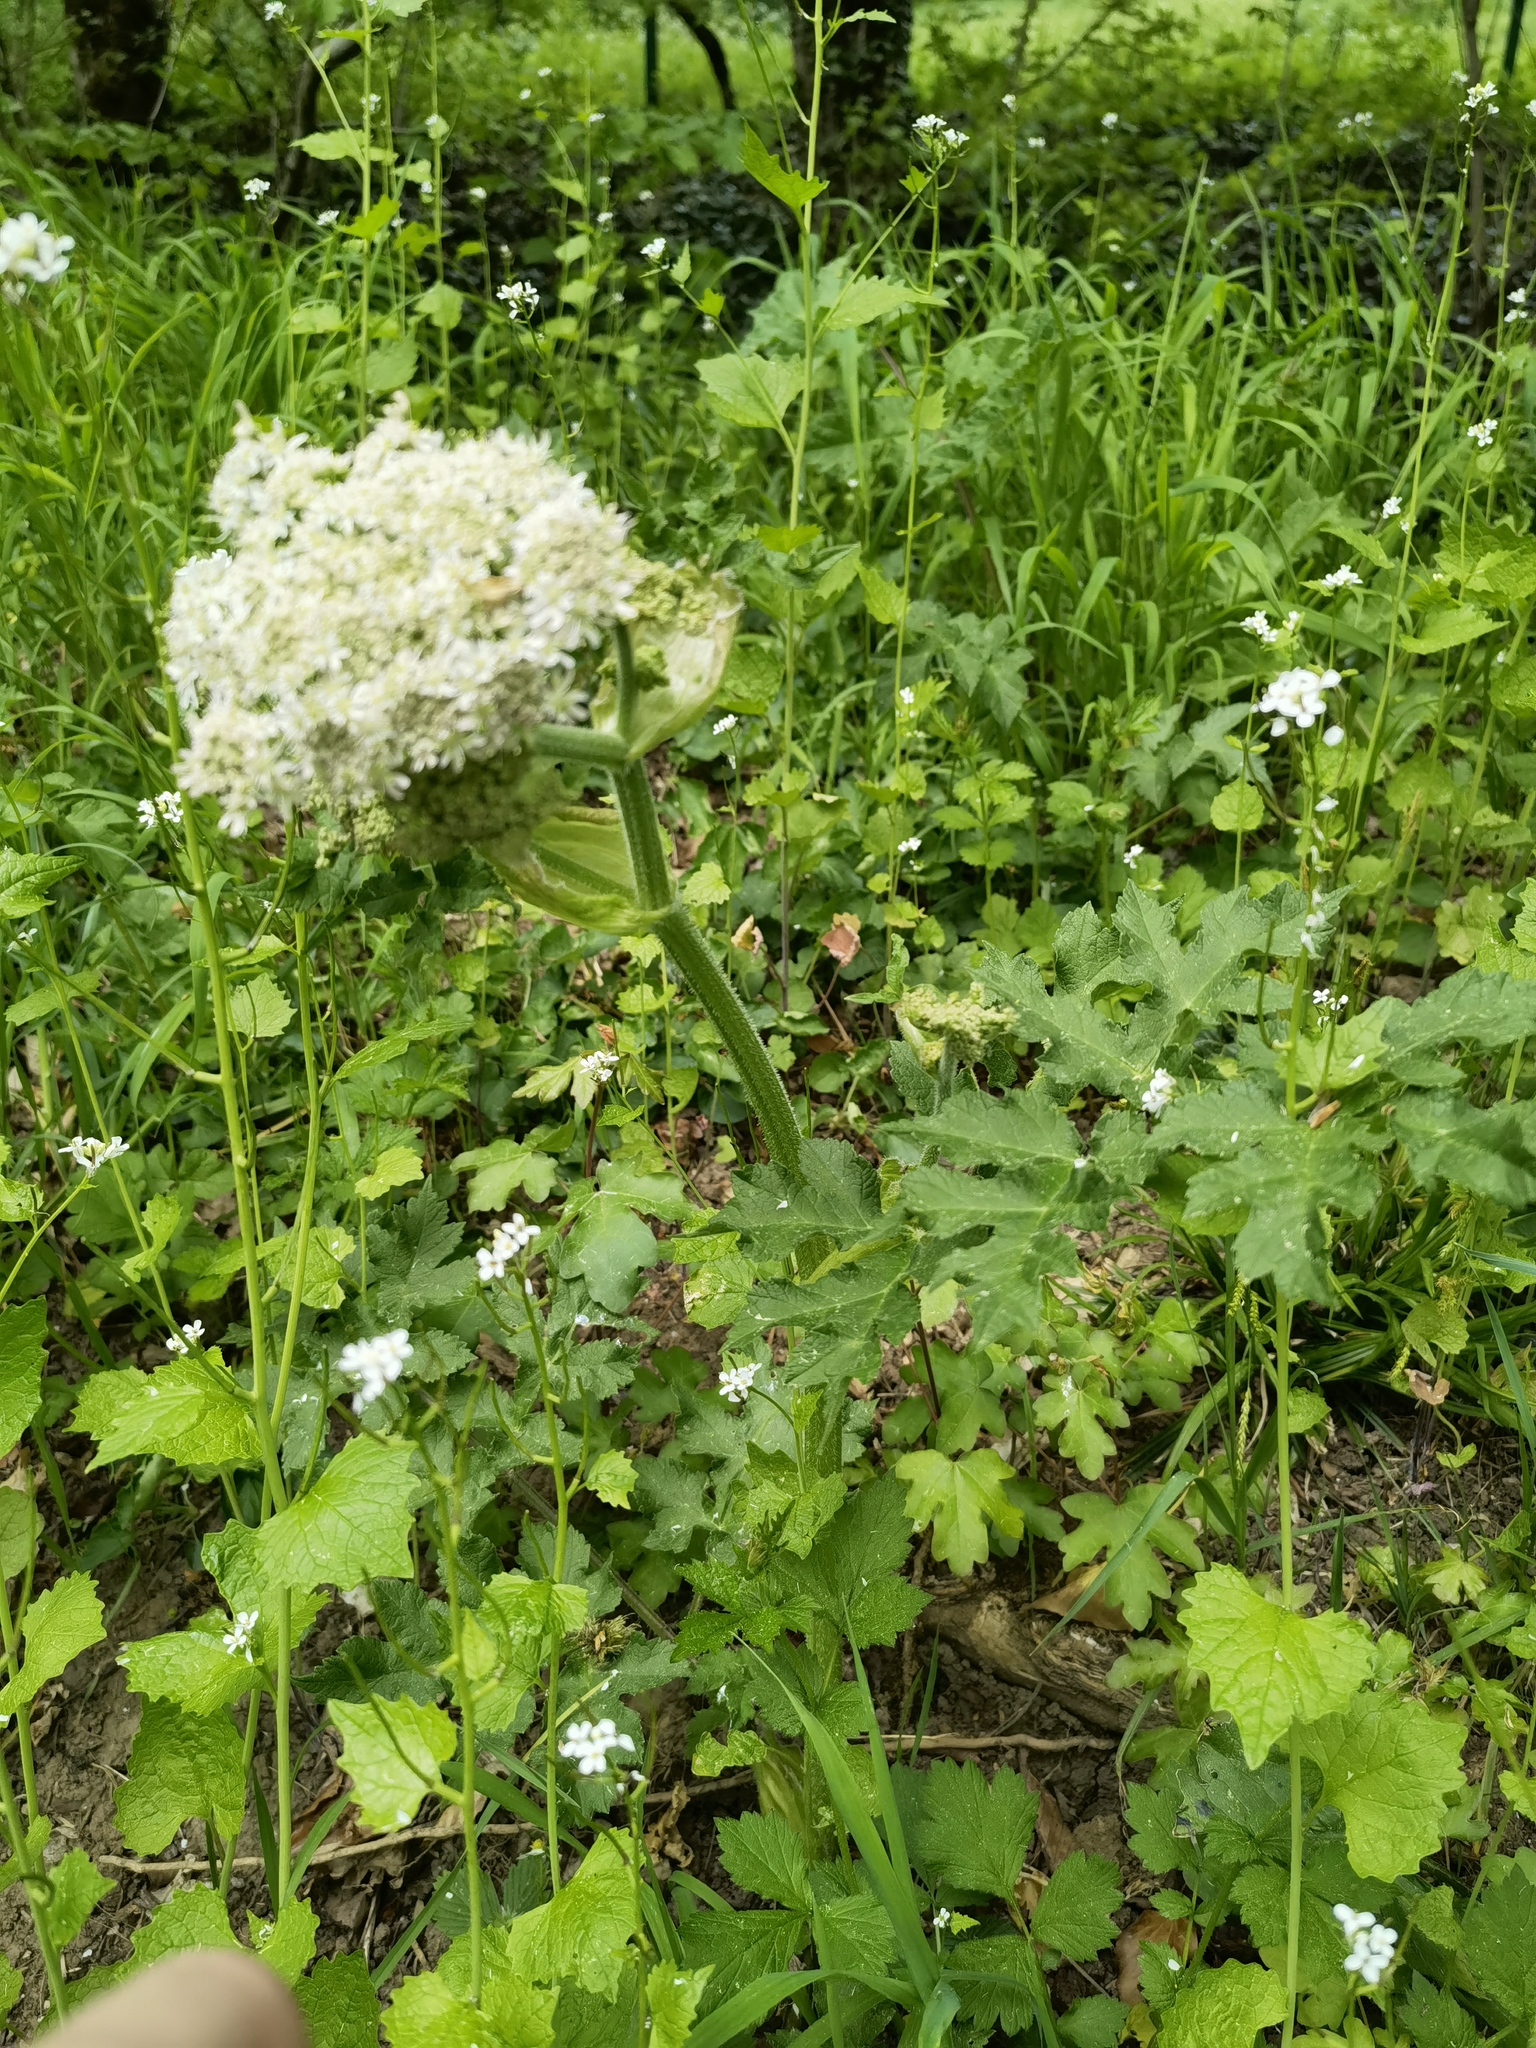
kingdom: Plantae
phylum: Tracheophyta
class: Magnoliopsida
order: Apiales
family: Apiaceae
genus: Heracleum
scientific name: Heracleum sphondylium
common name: Hogweed
